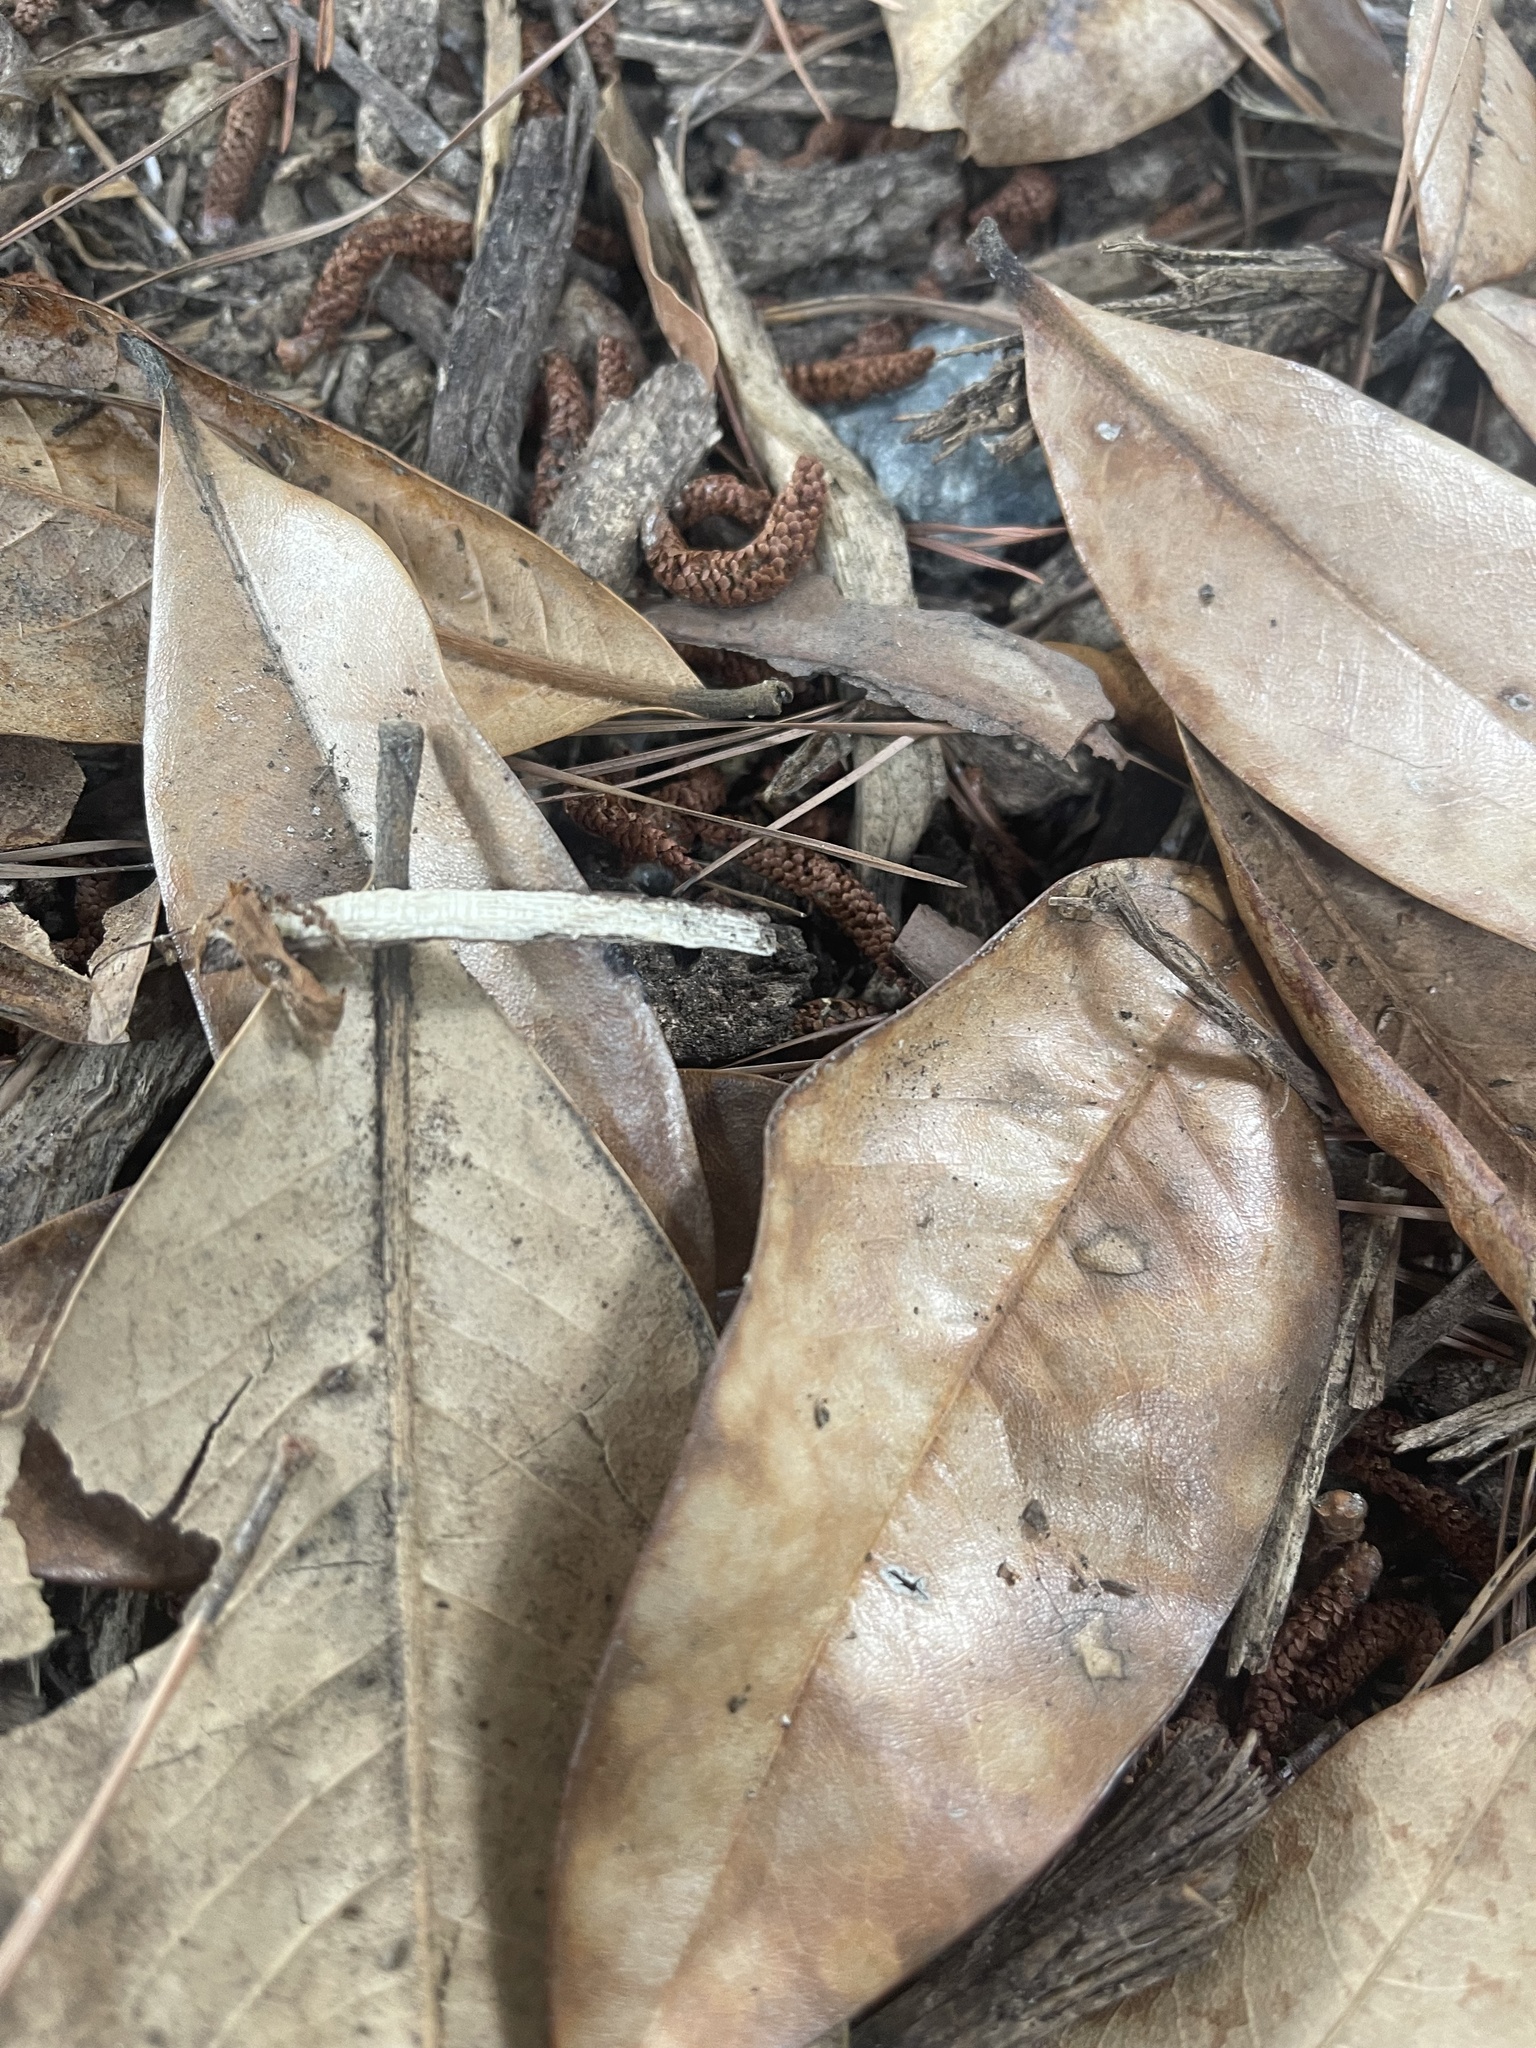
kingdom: Animalia
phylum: Arthropoda
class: Insecta
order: Hymenoptera
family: Formicidae
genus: Camponotus
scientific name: Camponotus pennsylvanicus
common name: Black carpenter ant
